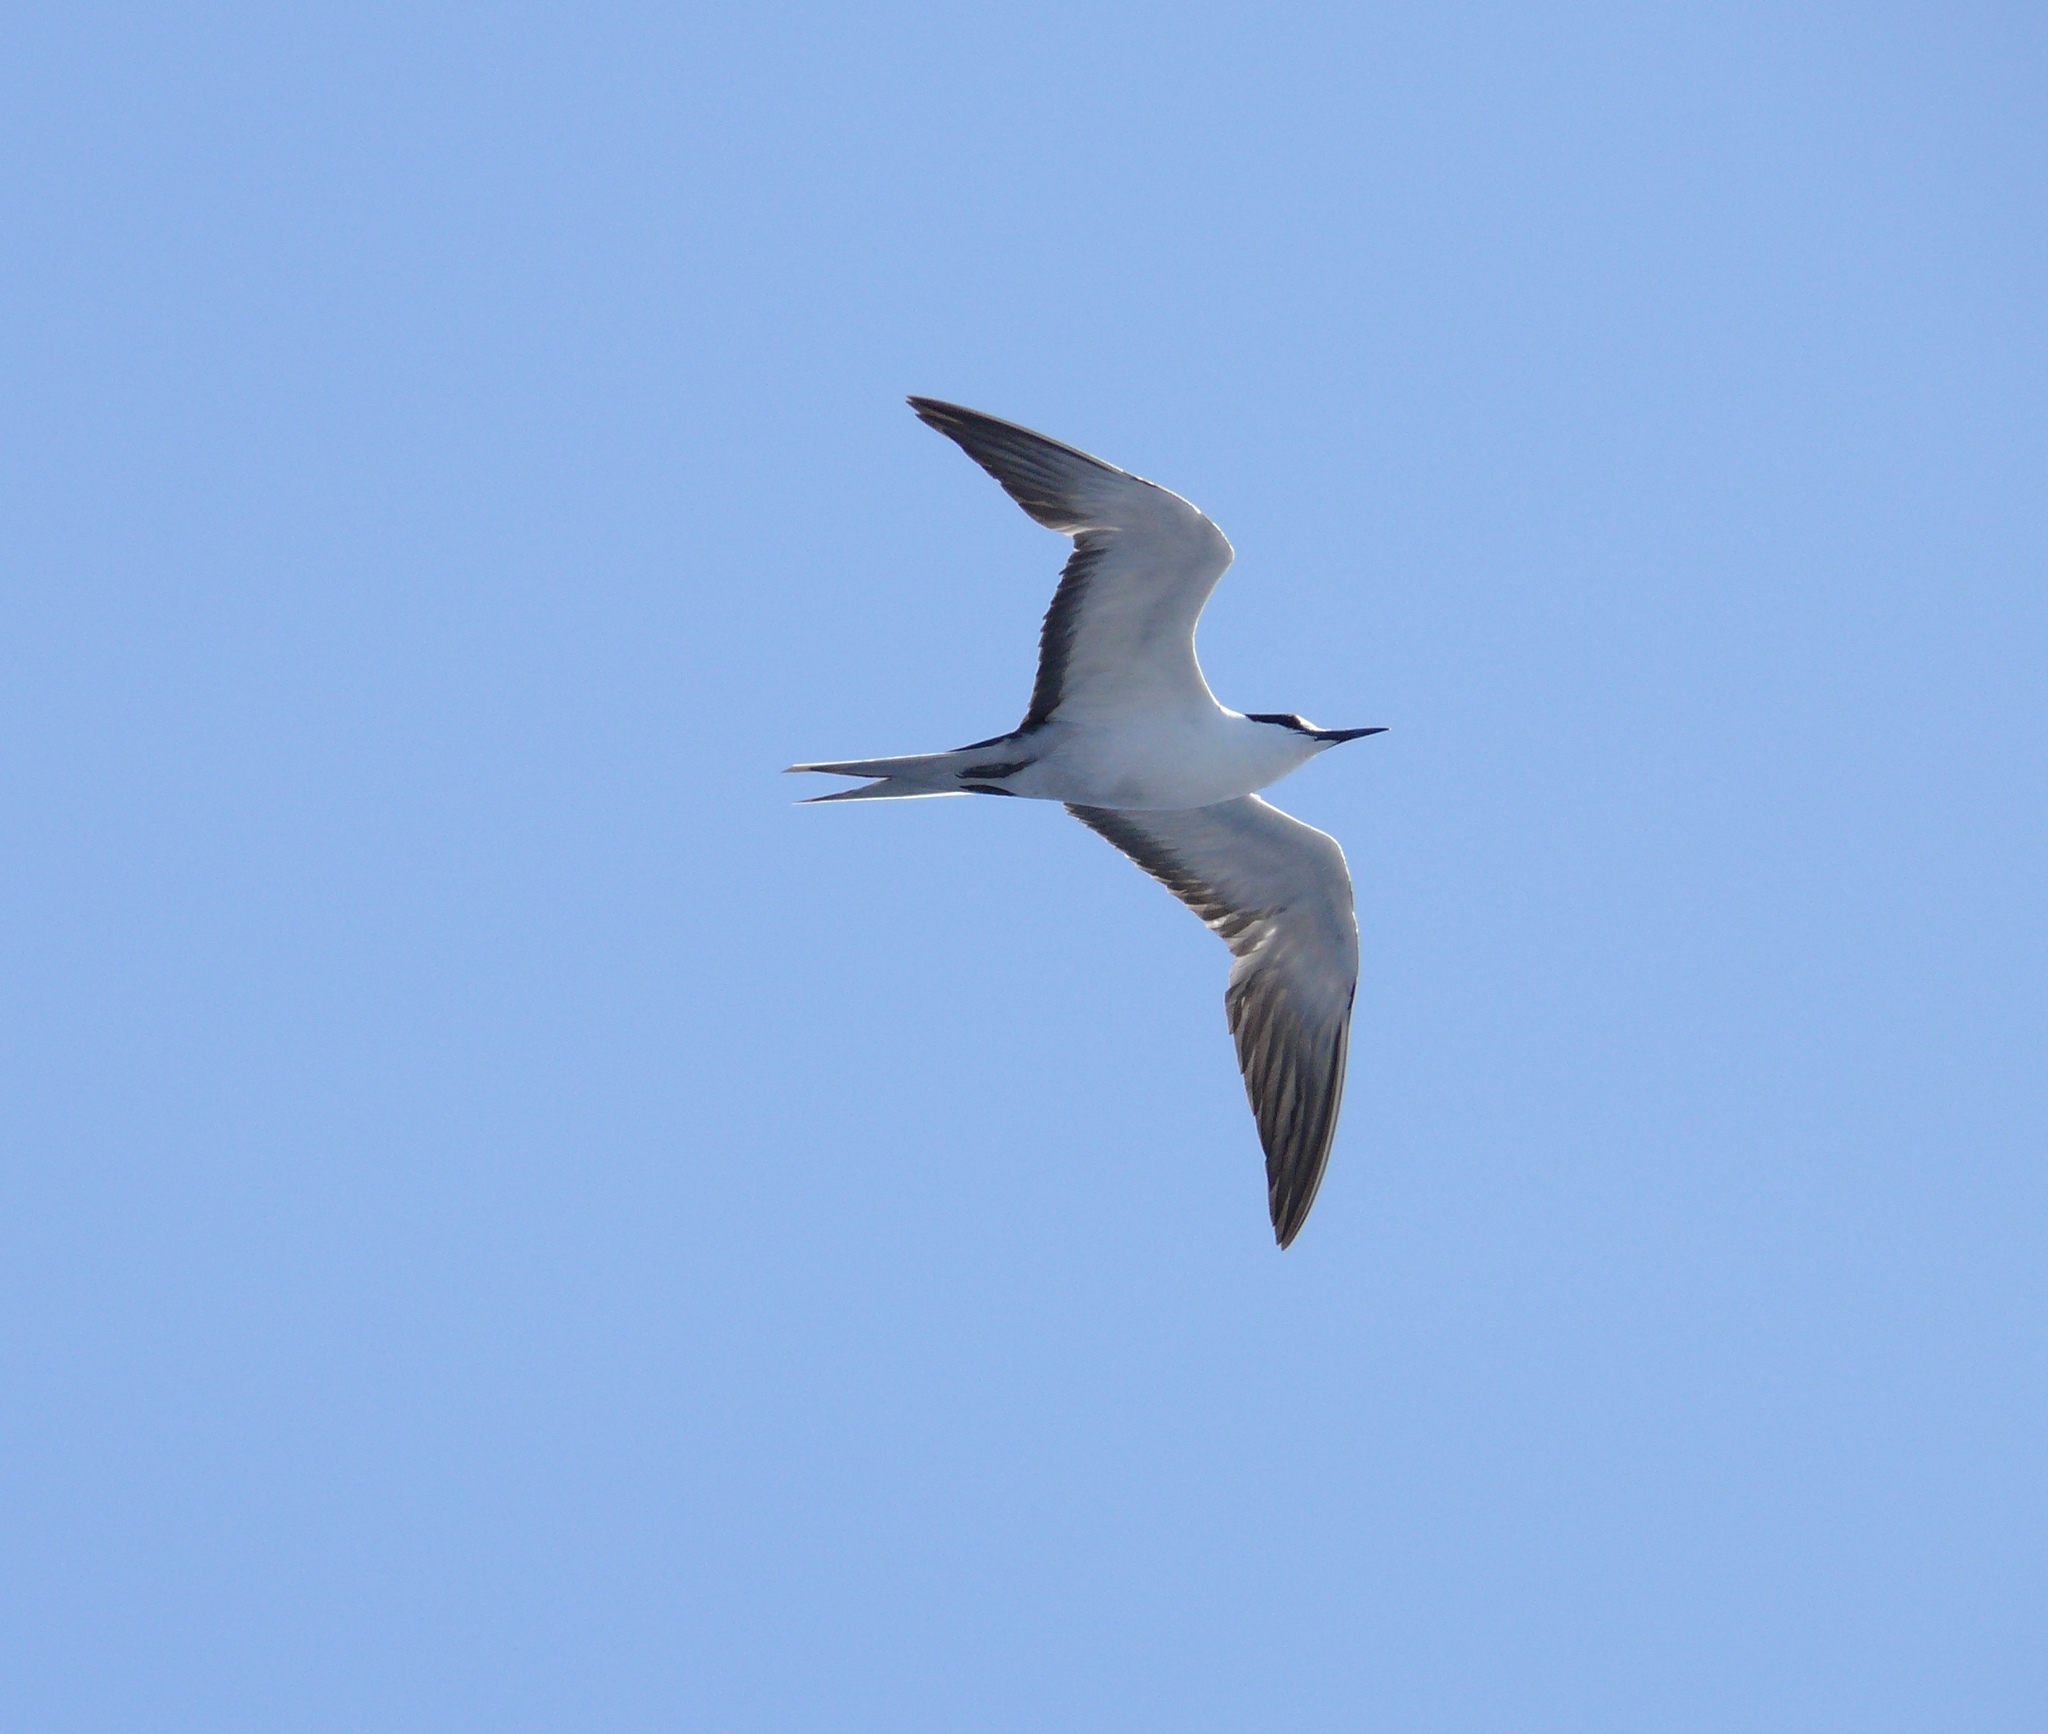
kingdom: Animalia
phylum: Chordata
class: Aves
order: Charadriiformes
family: Laridae
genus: Onychoprion
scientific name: Onychoprion fuscatus
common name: Sooty tern
